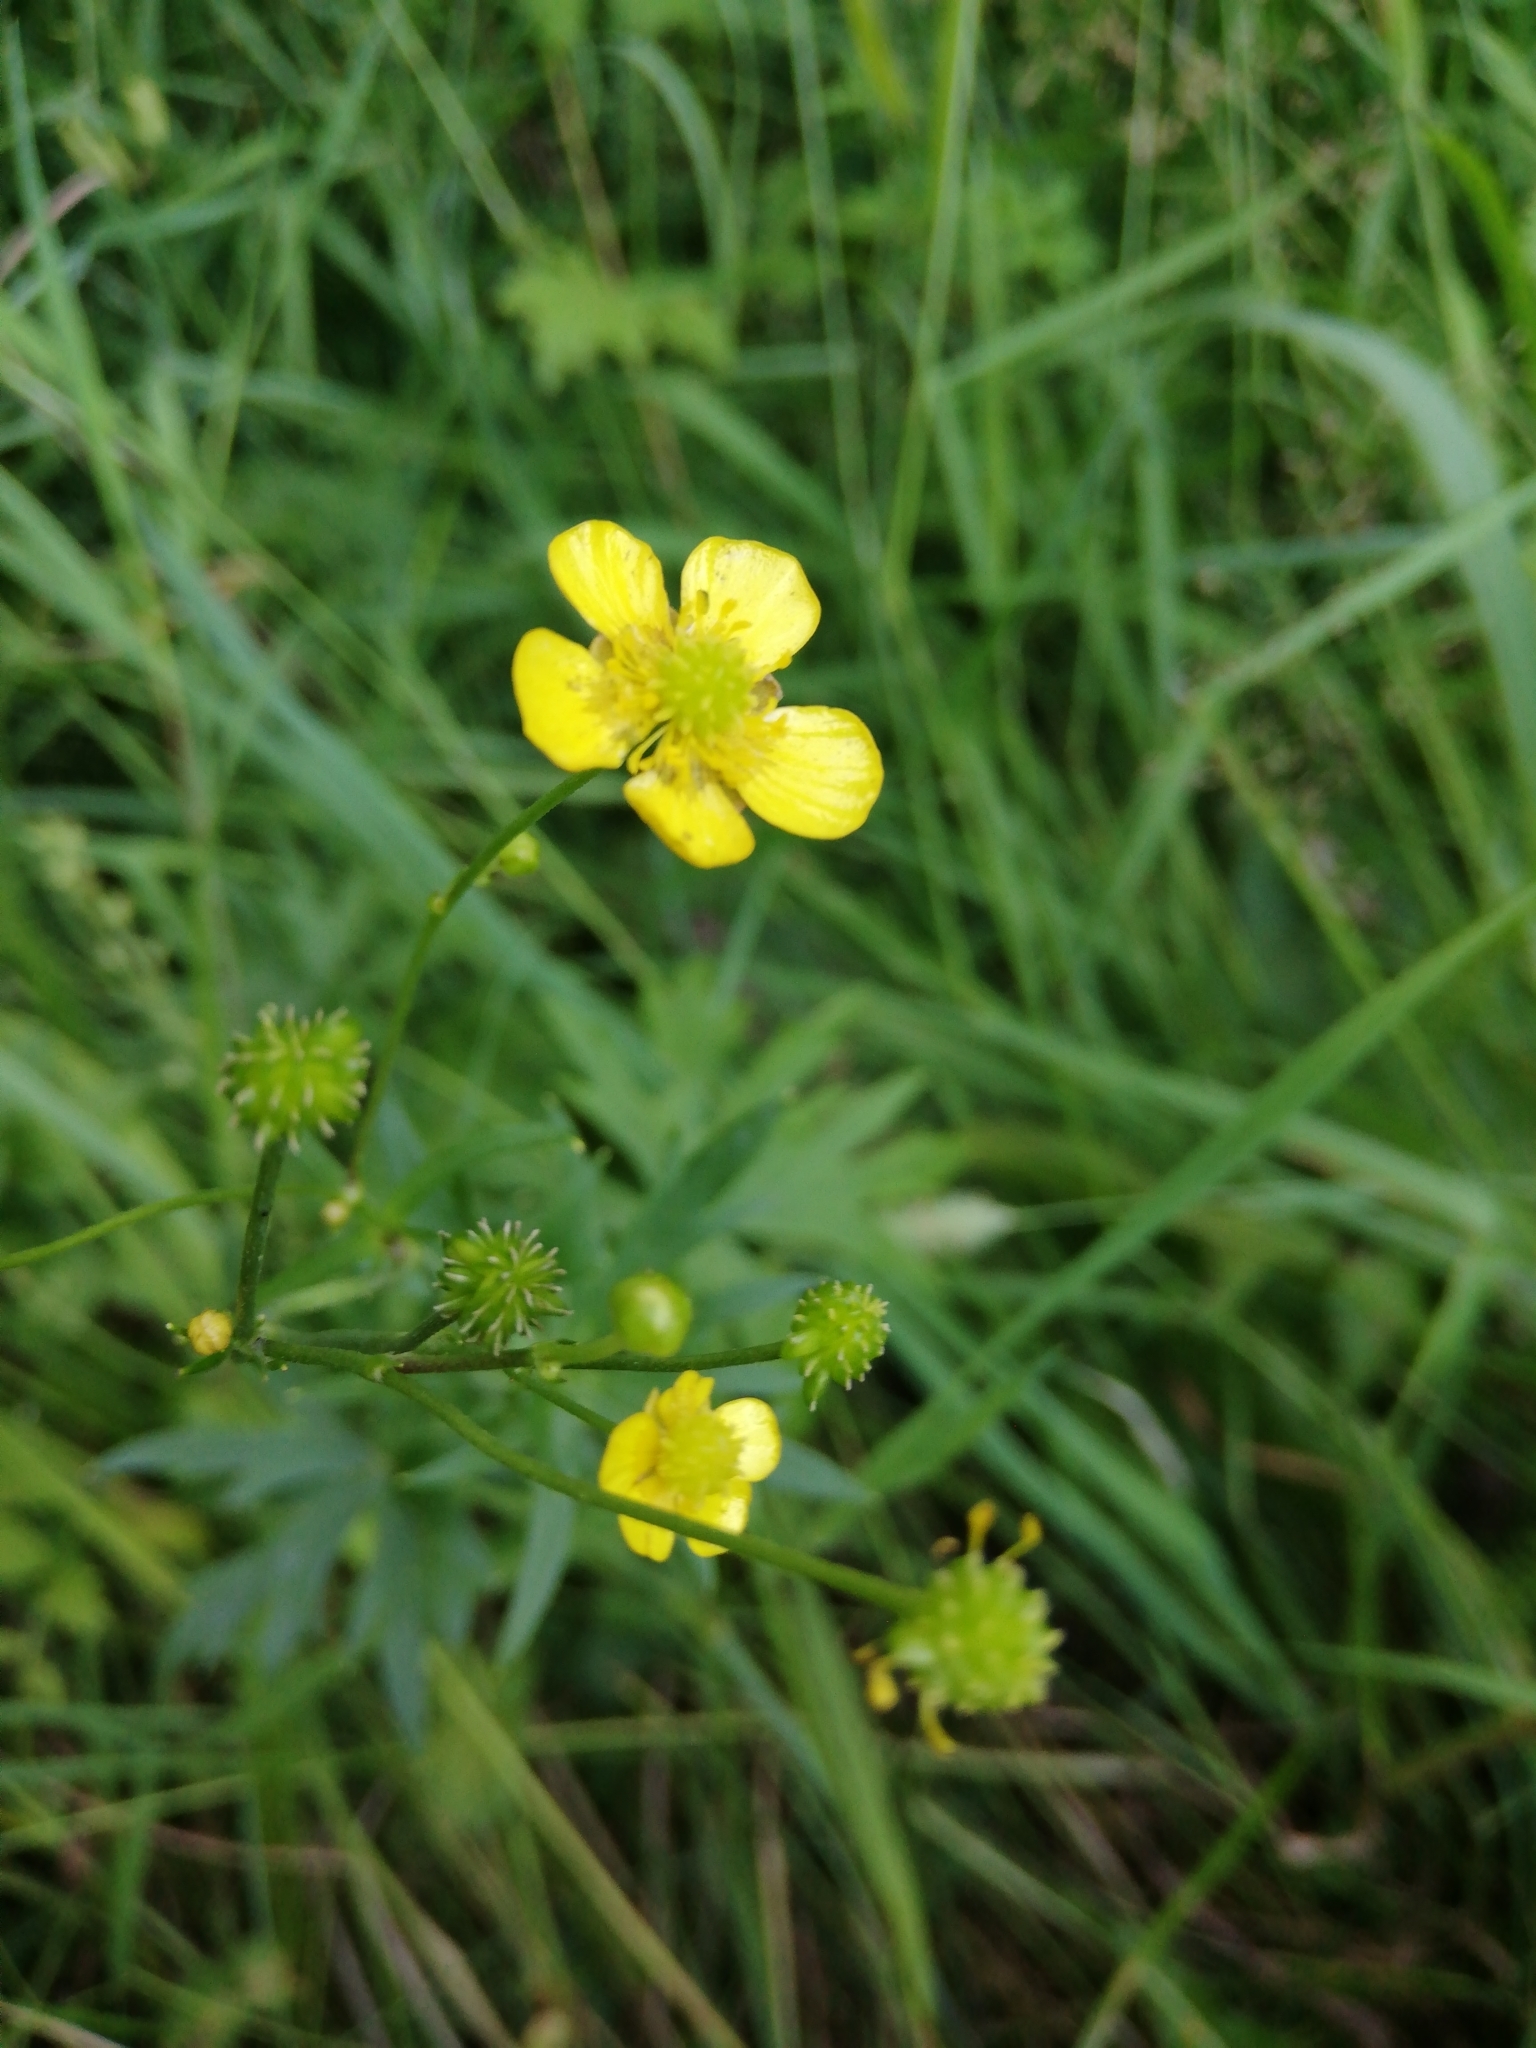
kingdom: Plantae
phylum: Tracheophyta
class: Magnoliopsida
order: Ranunculales
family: Ranunculaceae
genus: Ranunculus
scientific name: Ranunculus acris
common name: Meadow buttercup
